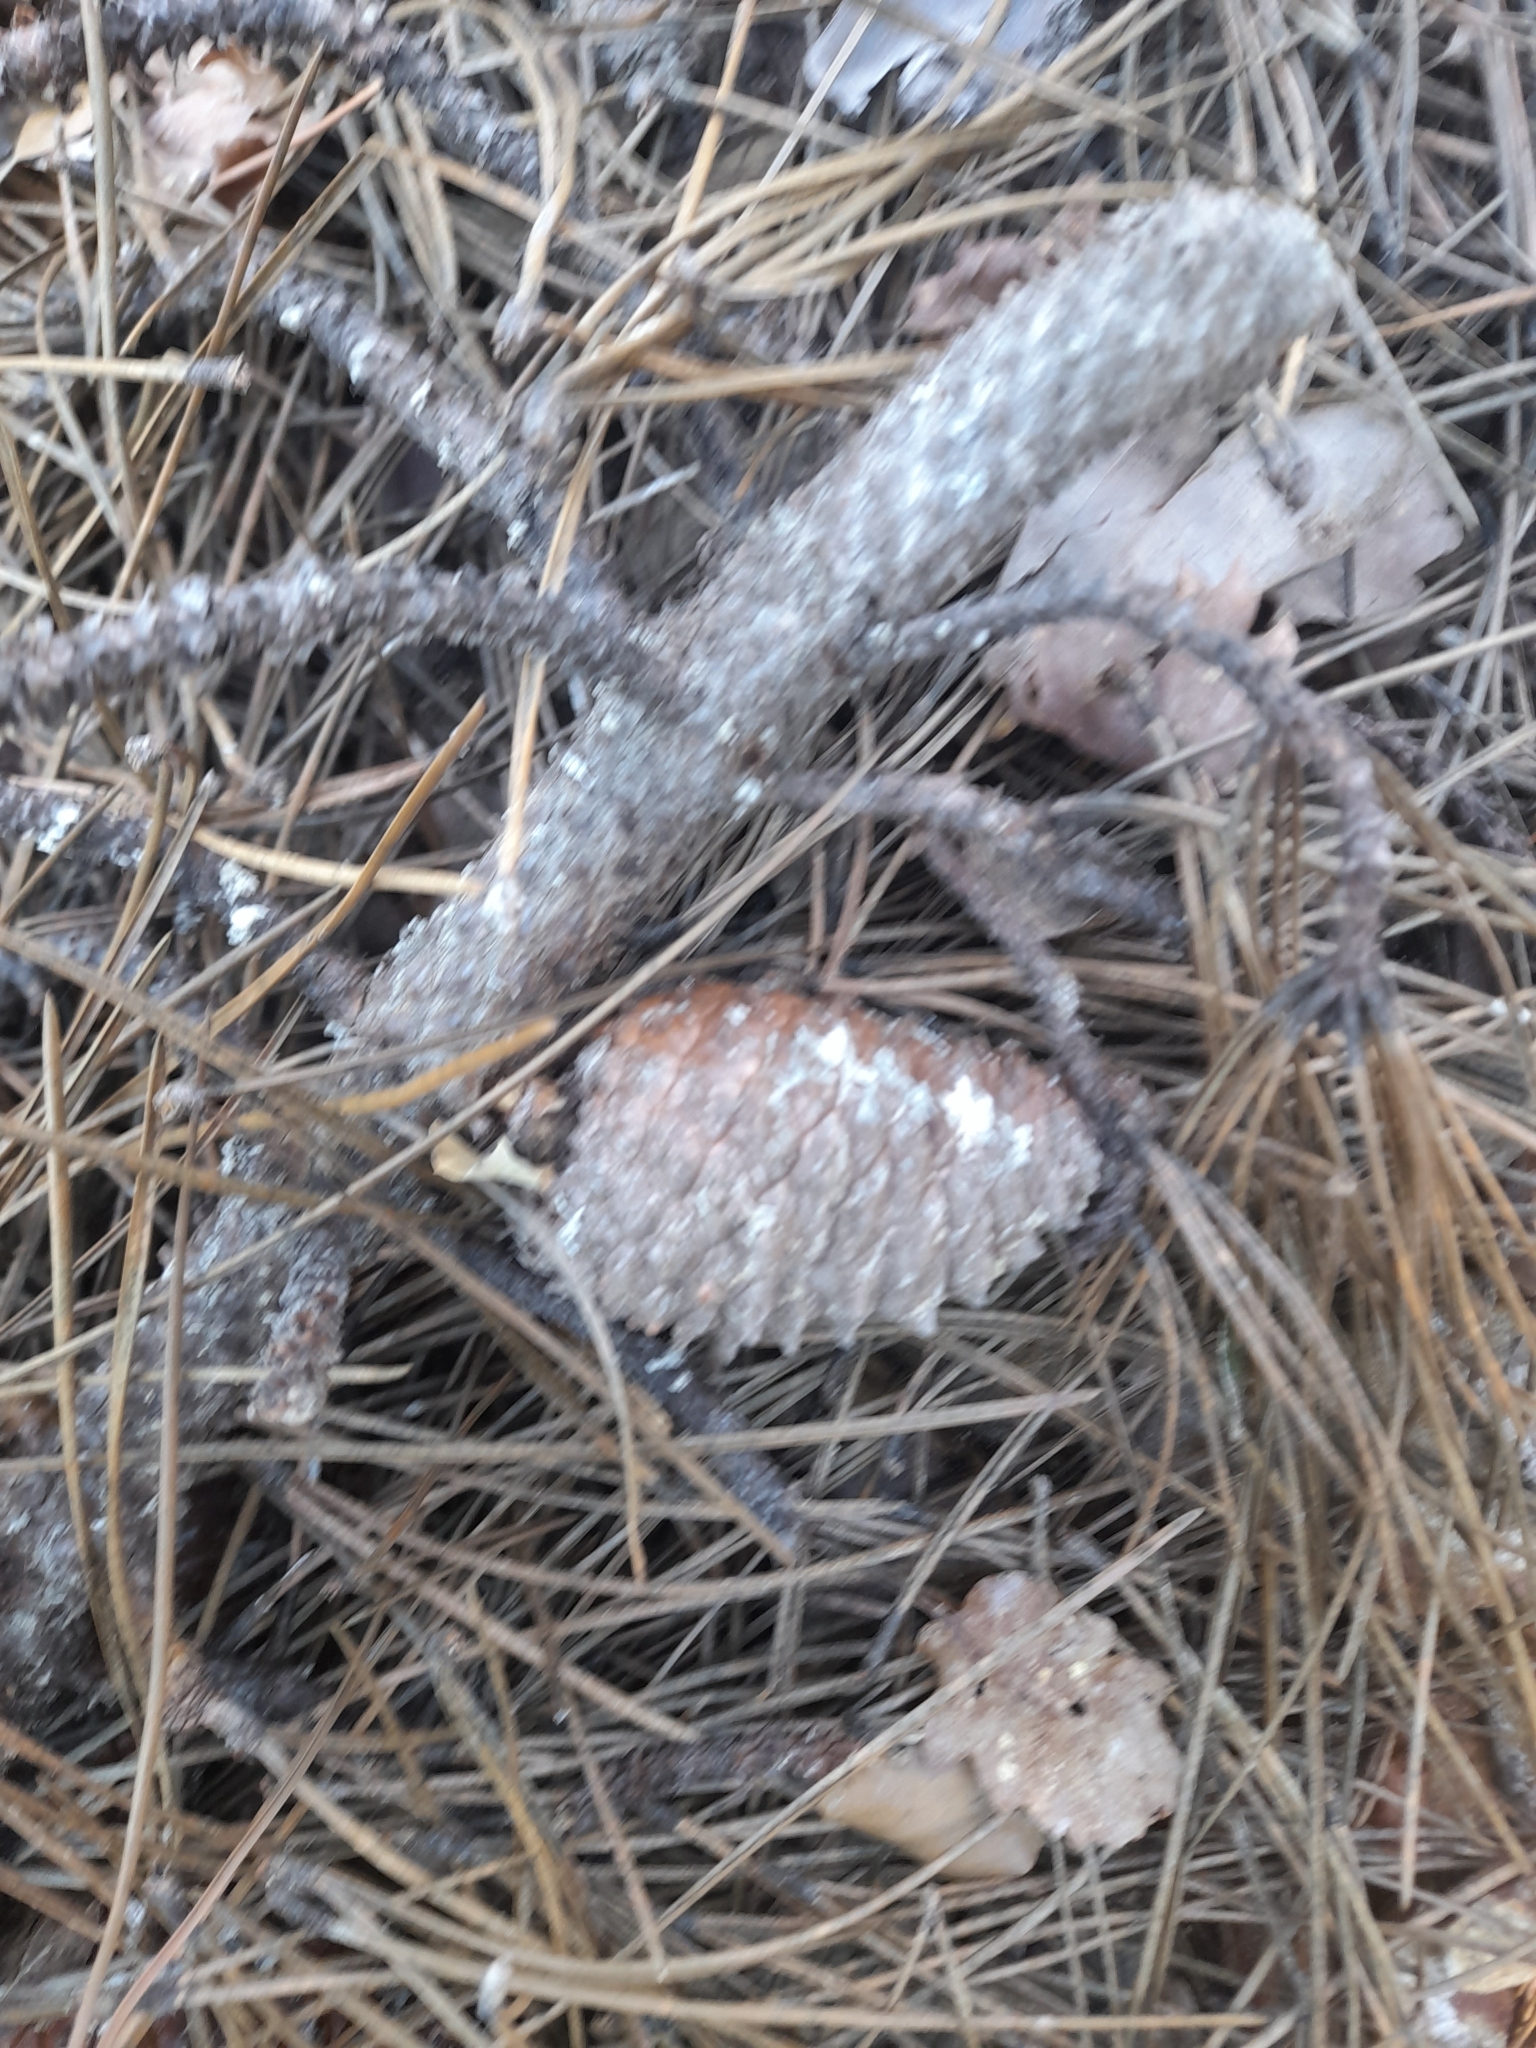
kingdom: Plantae
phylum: Tracheophyta
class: Pinopsida
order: Pinales
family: Pinaceae
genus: Pinus
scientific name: Pinus pinaster
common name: Maritime pine
